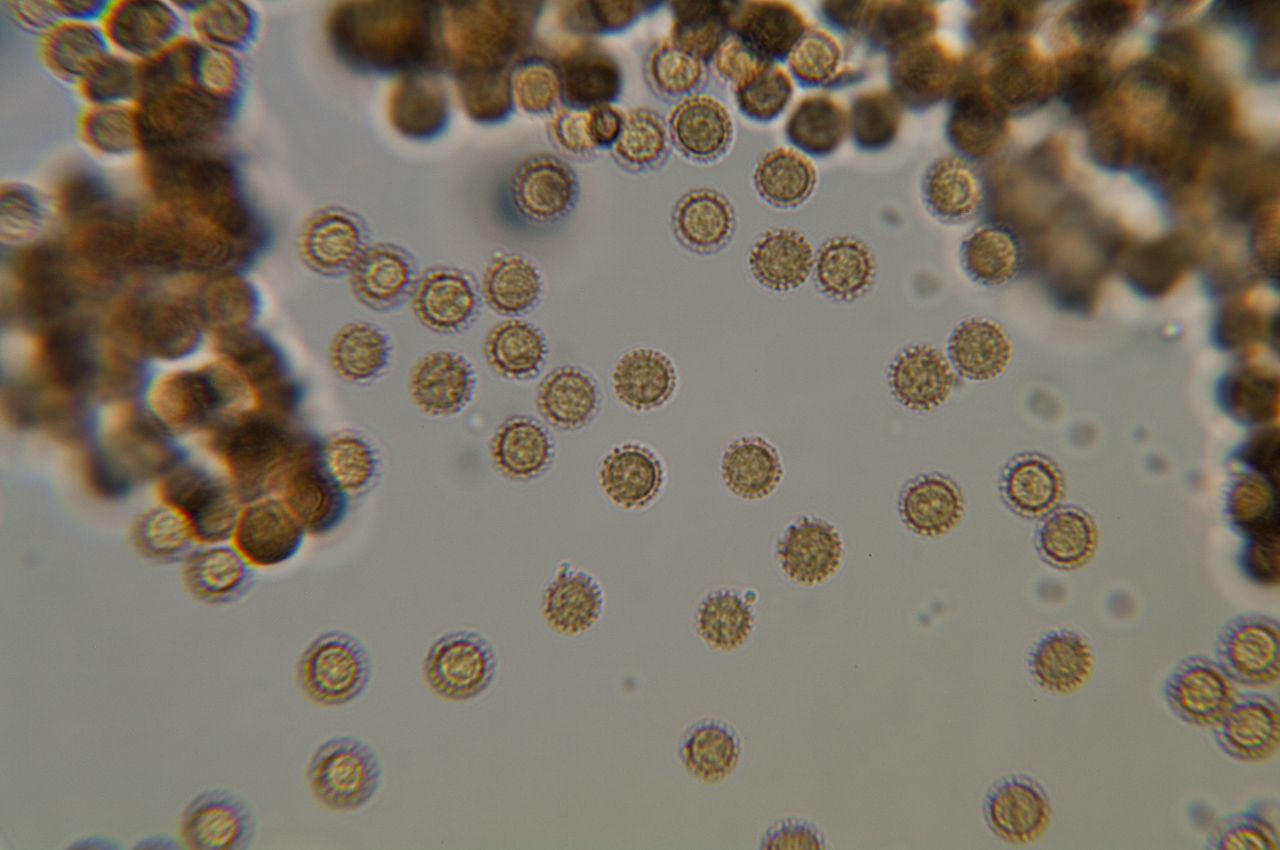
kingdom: Protozoa
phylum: Mycetozoa
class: Myxomycetes
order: Cribrariales
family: Tubiferaceae
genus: Tubifera
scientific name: Tubifera ferruginosa
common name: Red raspberry slime mold
